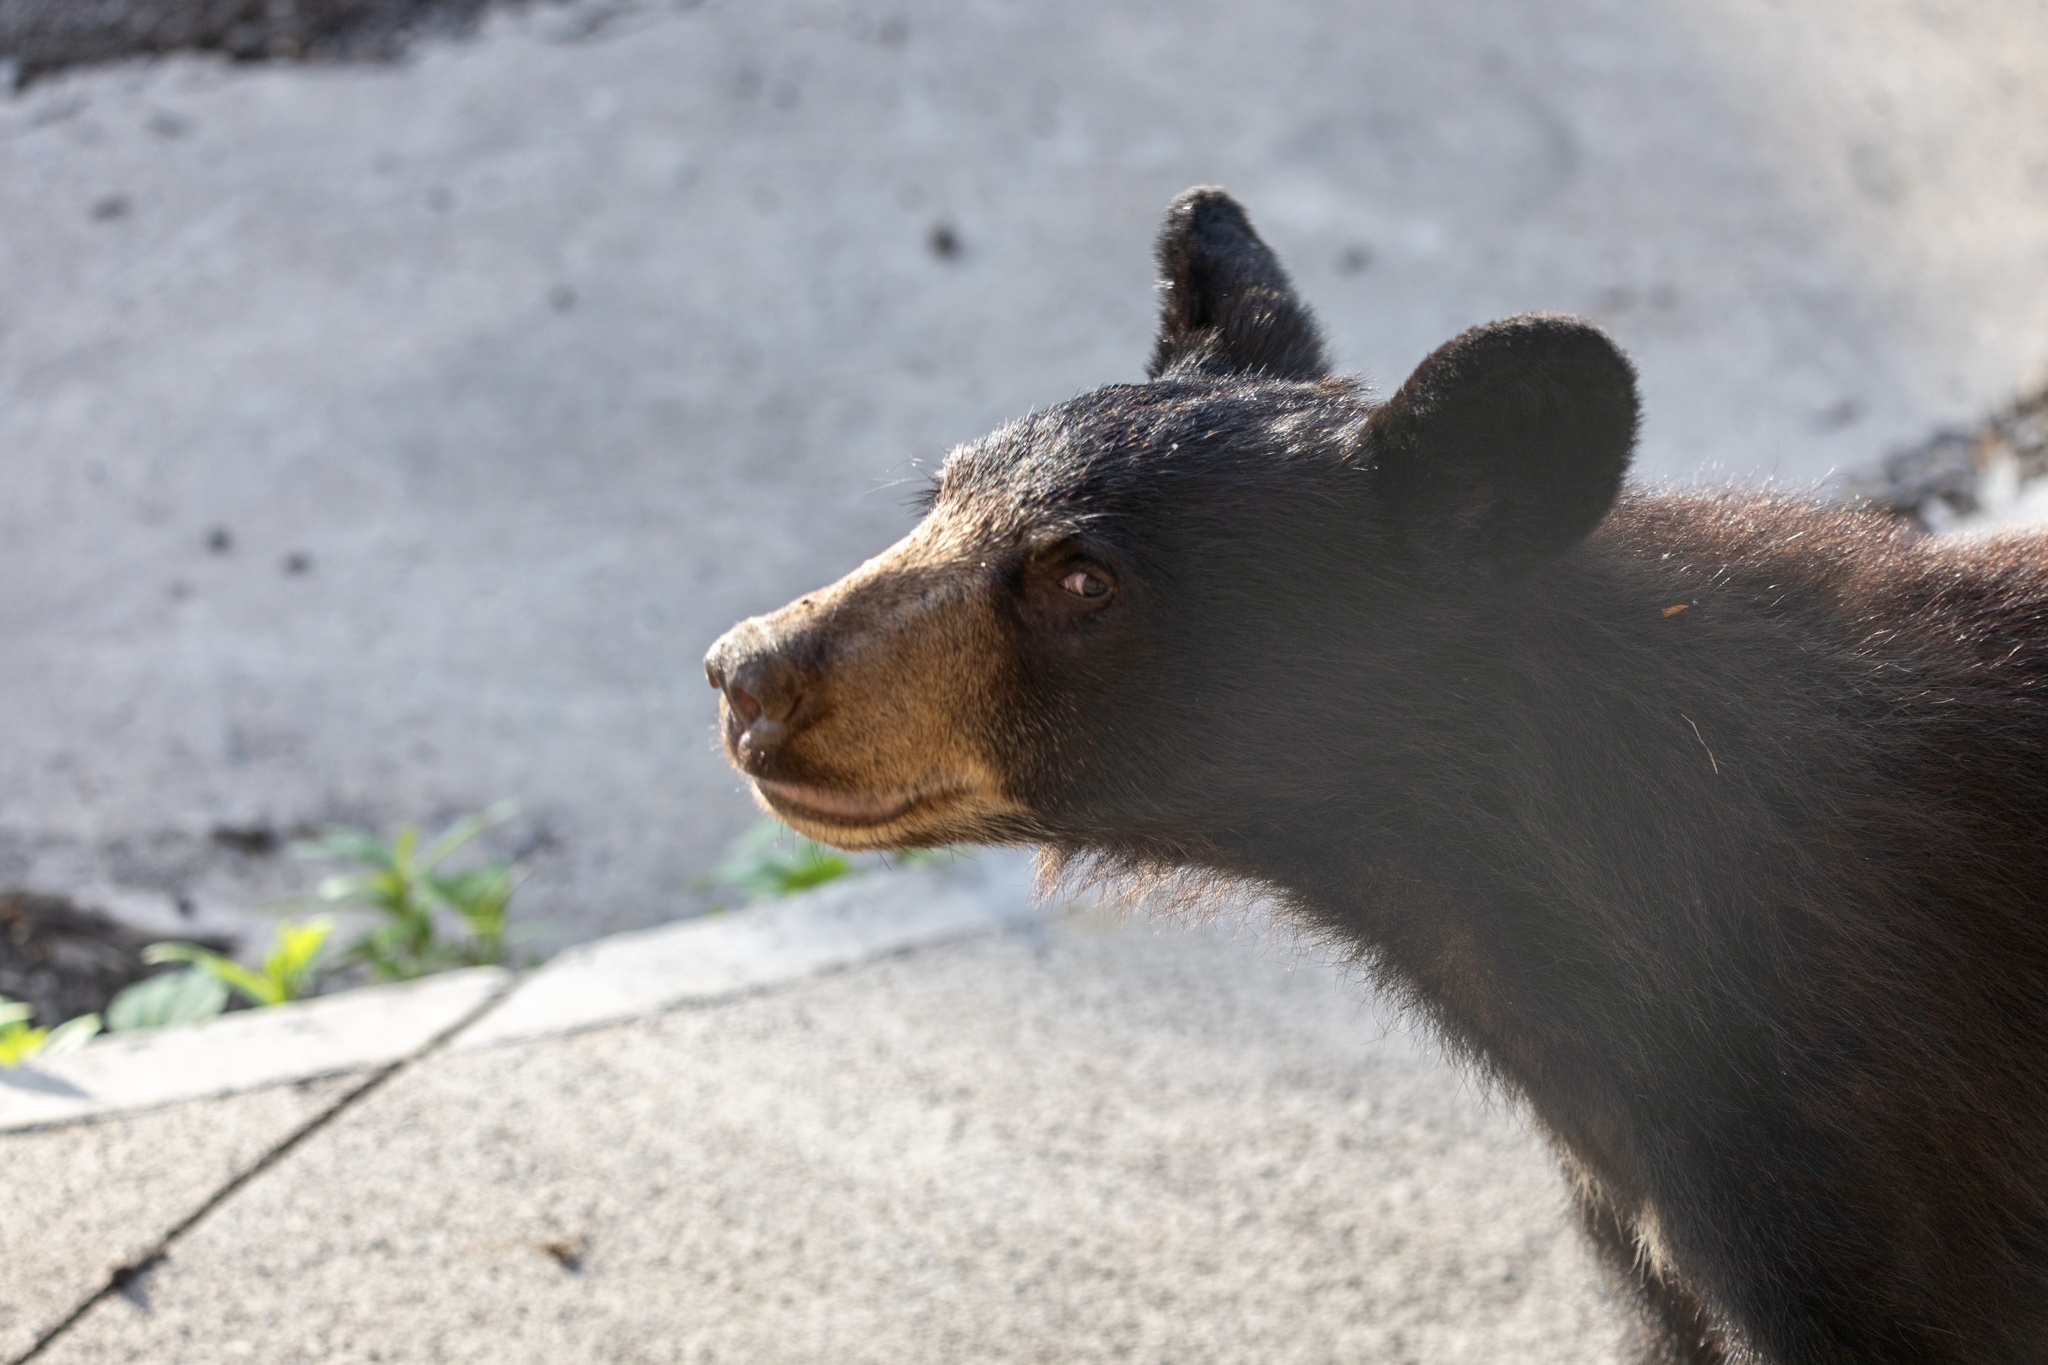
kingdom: Animalia
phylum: Chordata
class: Mammalia
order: Carnivora
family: Ursidae
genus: Ursus
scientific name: Ursus americanus
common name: American black bear
